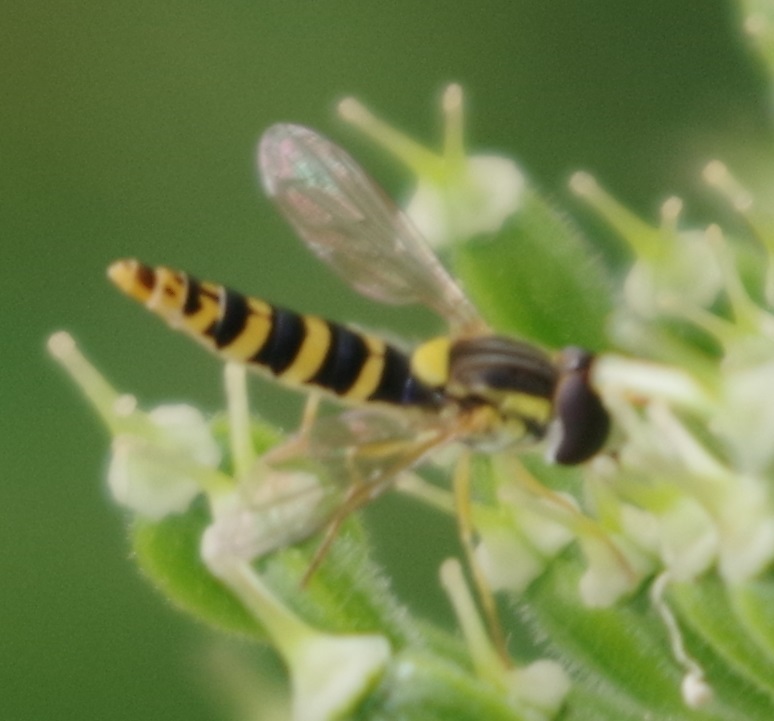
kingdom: Animalia
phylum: Arthropoda
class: Insecta
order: Diptera
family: Syrphidae
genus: Sphaerophoria
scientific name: Sphaerophoria
